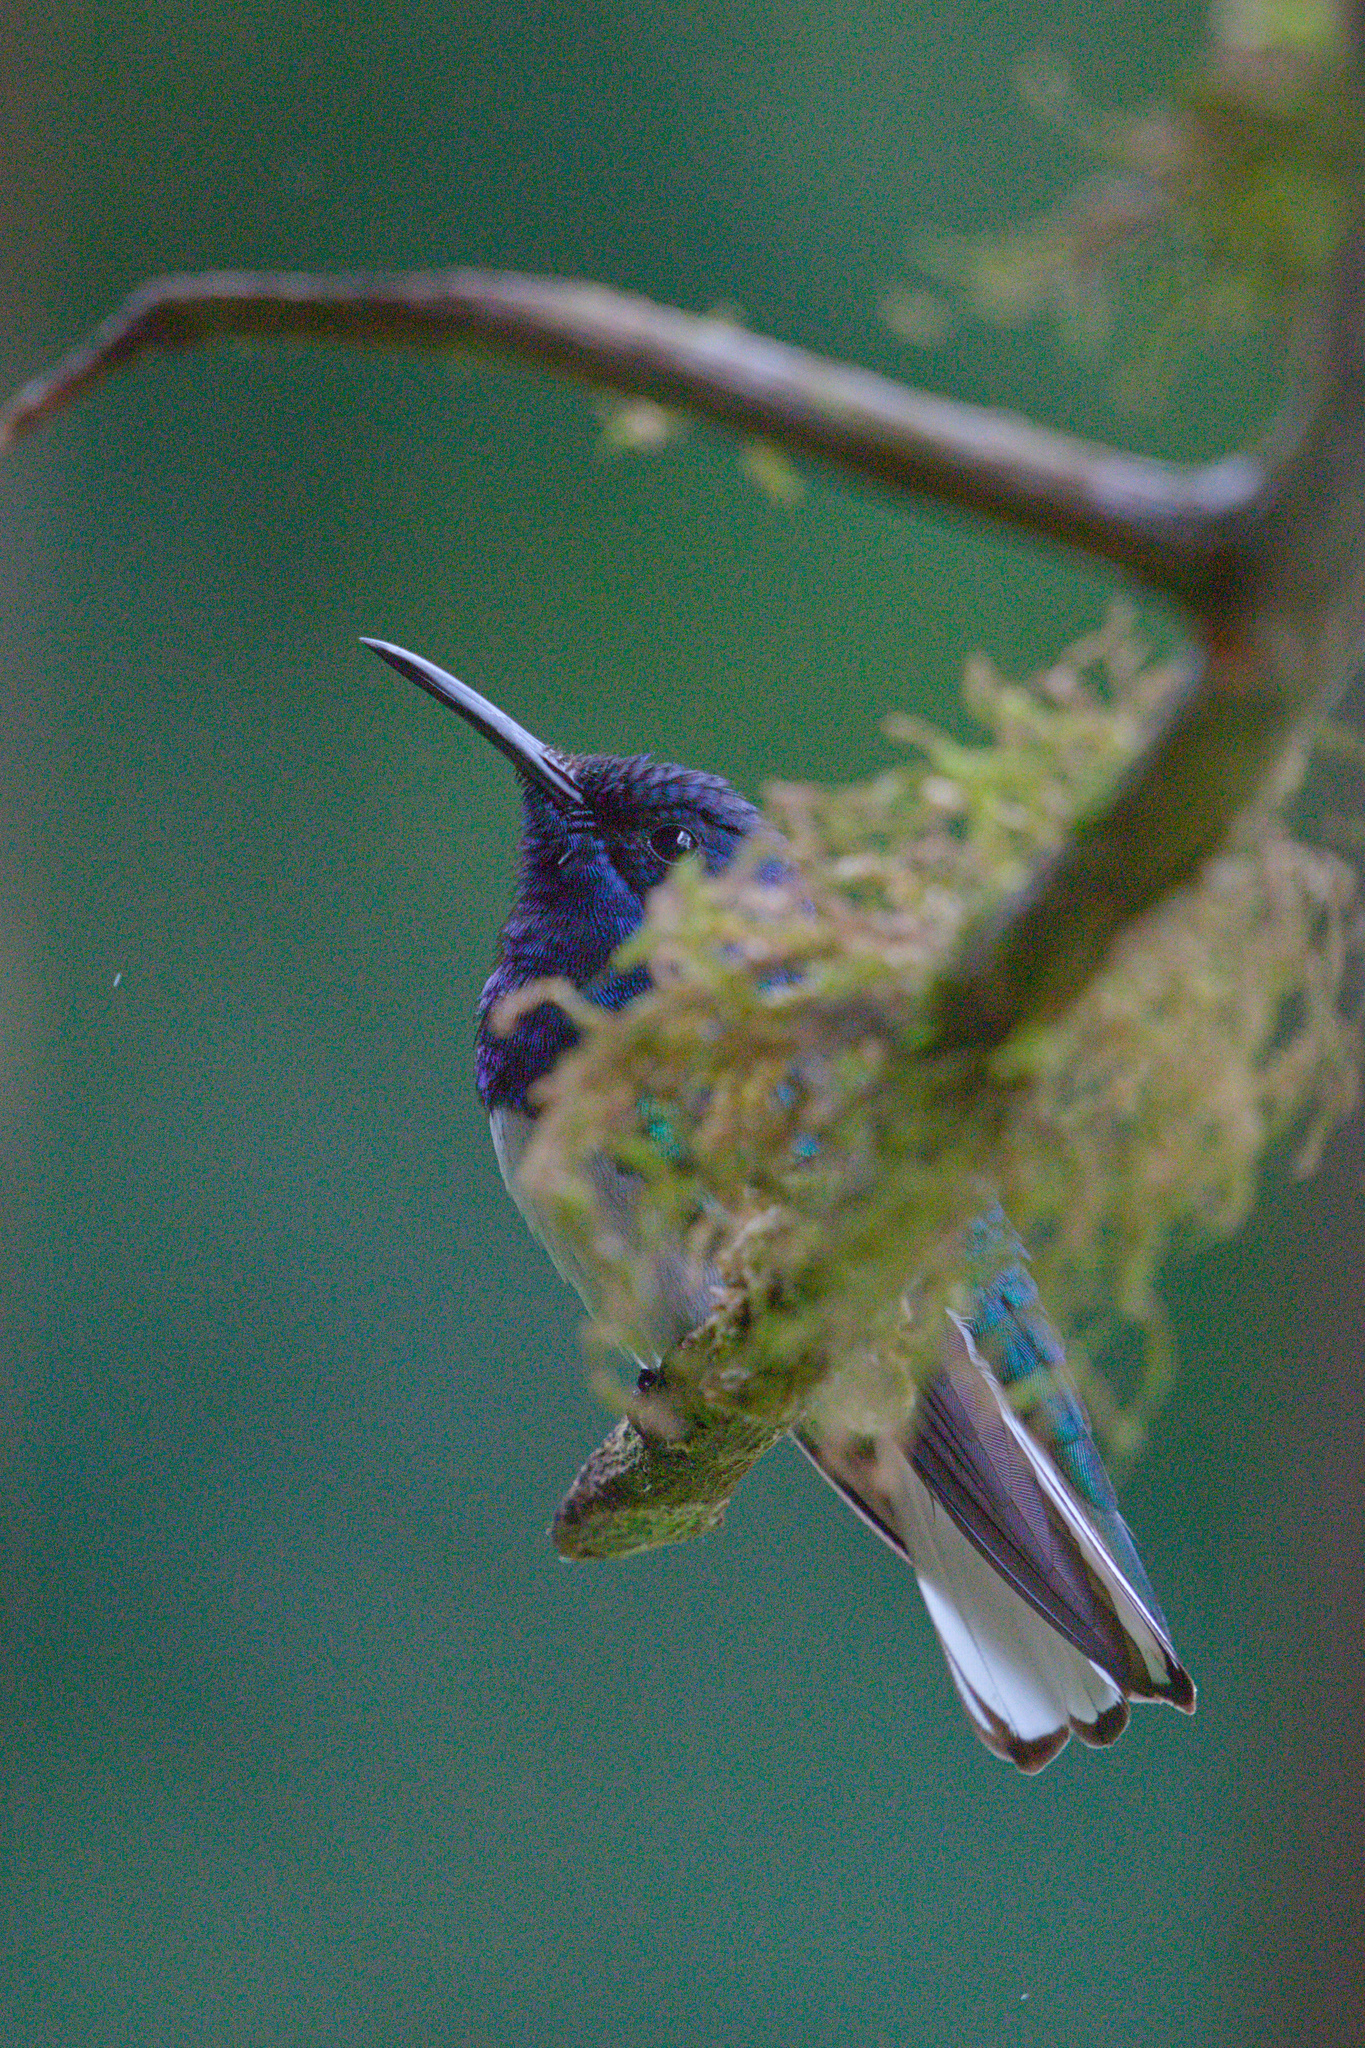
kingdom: Animalia
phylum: Chordata
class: Aves
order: Apodiformes
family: Trochilidae
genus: Florisuga
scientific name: Florisuga mellivora
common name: White-necked jacobin
